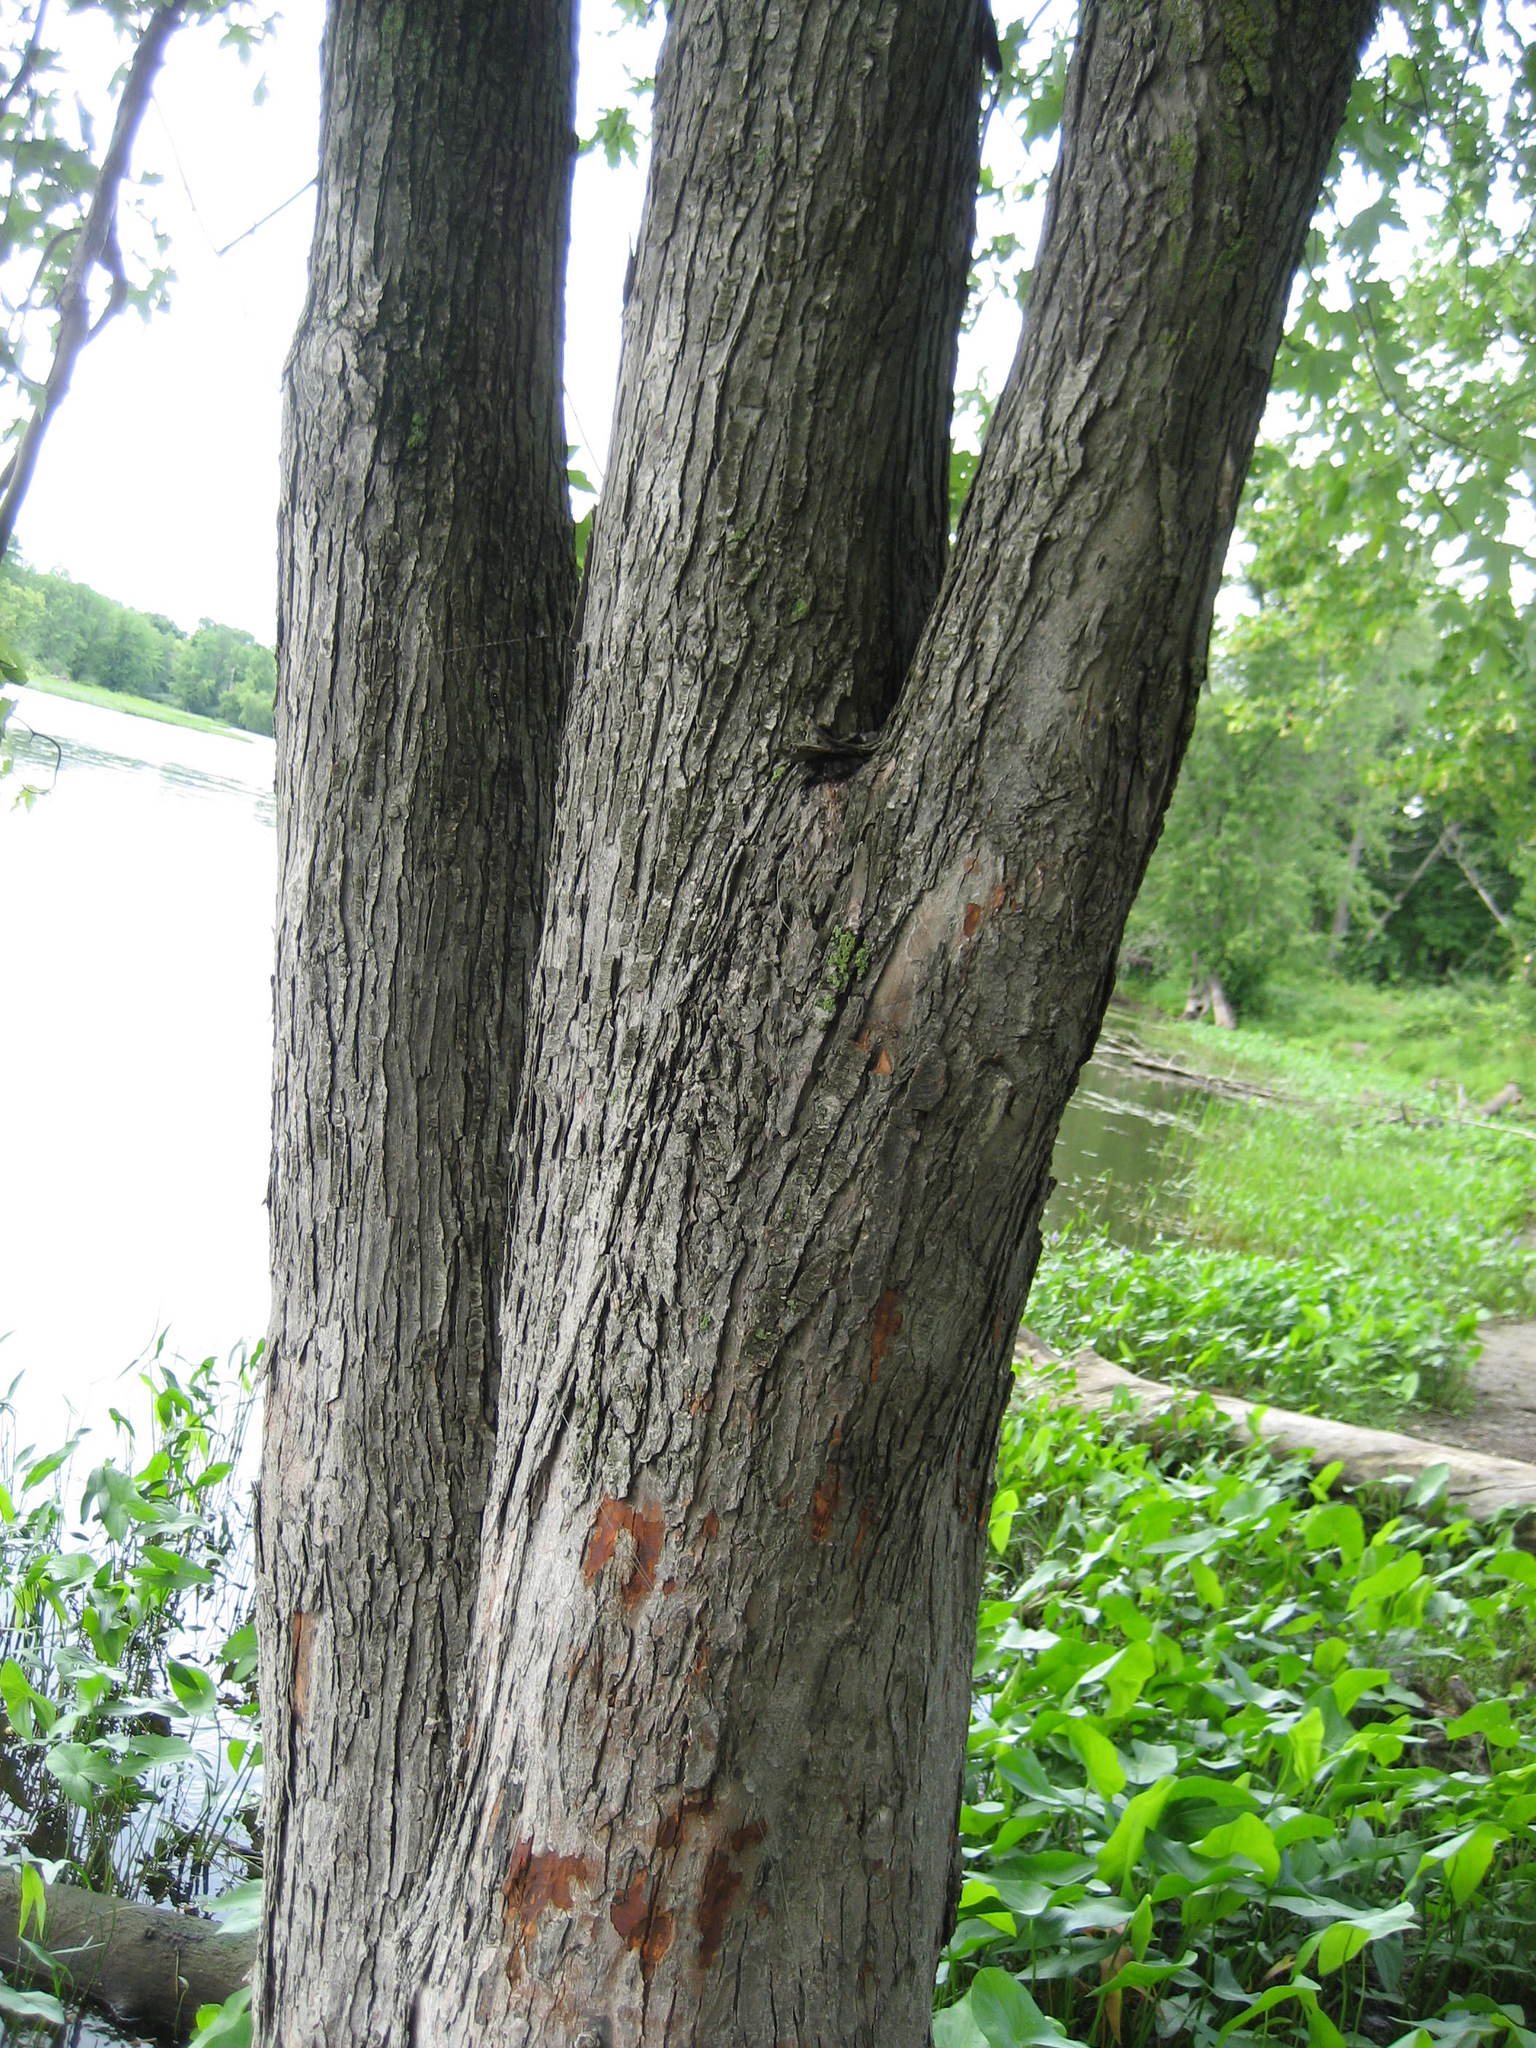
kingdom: Plantae
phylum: Tracheophyta
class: Magnoliopsida
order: Sapindales
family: Sapindaceae
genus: Acer
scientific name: Acer saccharinum
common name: Silver maple
